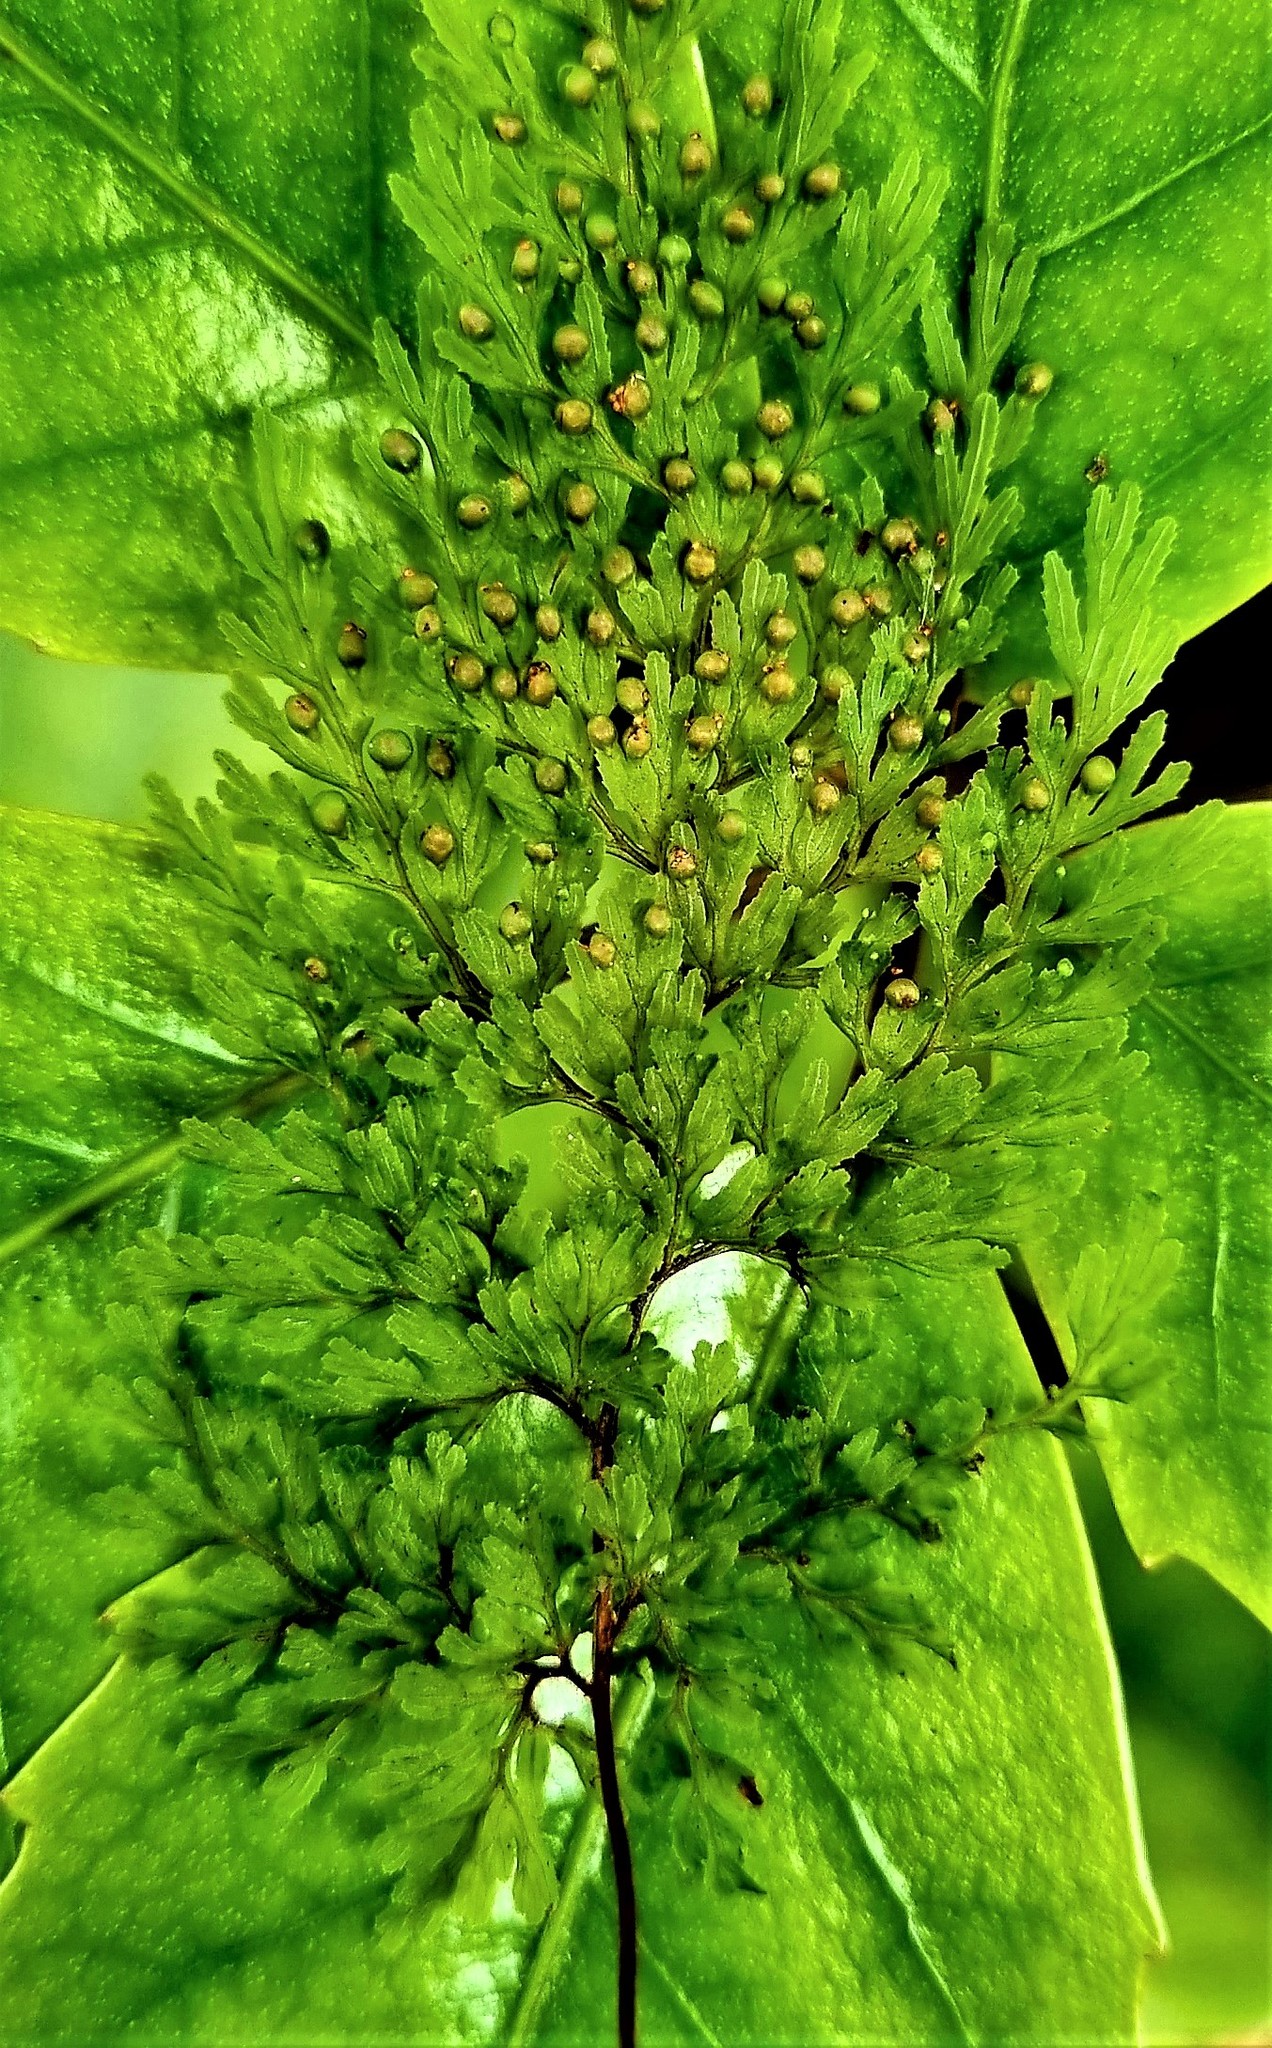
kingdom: Plantae
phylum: Tracheophyta
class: Polypodiopsida
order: Hymenophyllales
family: Hymenophyllaceae
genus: Hymenophyllum
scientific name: Hymenophyllum bivalve
